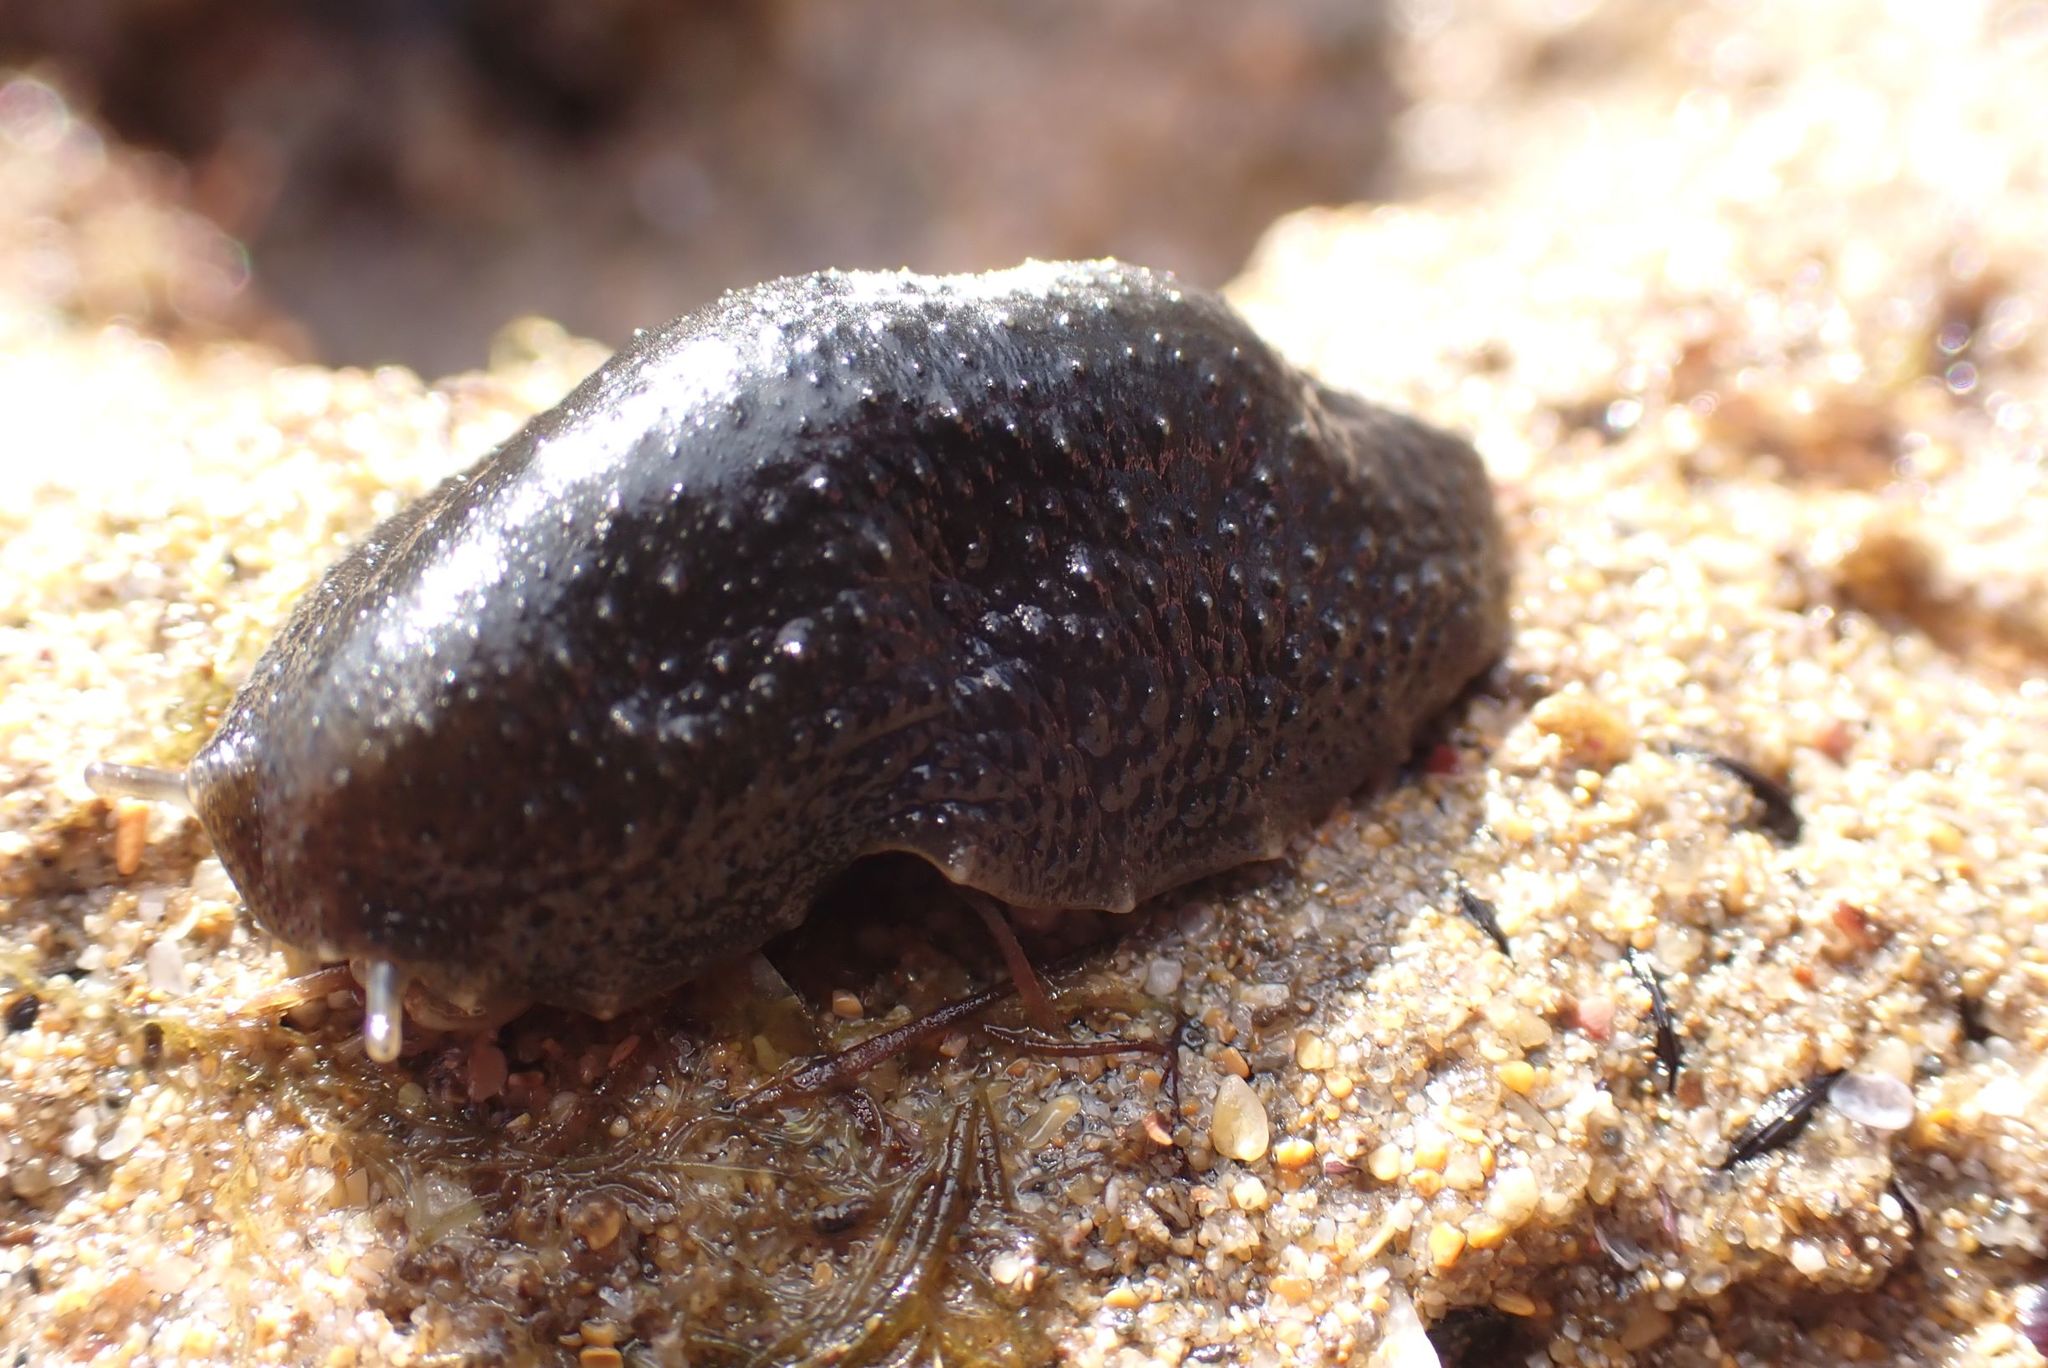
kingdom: Animalia
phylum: Mollusca
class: Gastropoda
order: Systellommatophora
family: Onchidiidae
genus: Onchidella
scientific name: Onchidella nigricans
